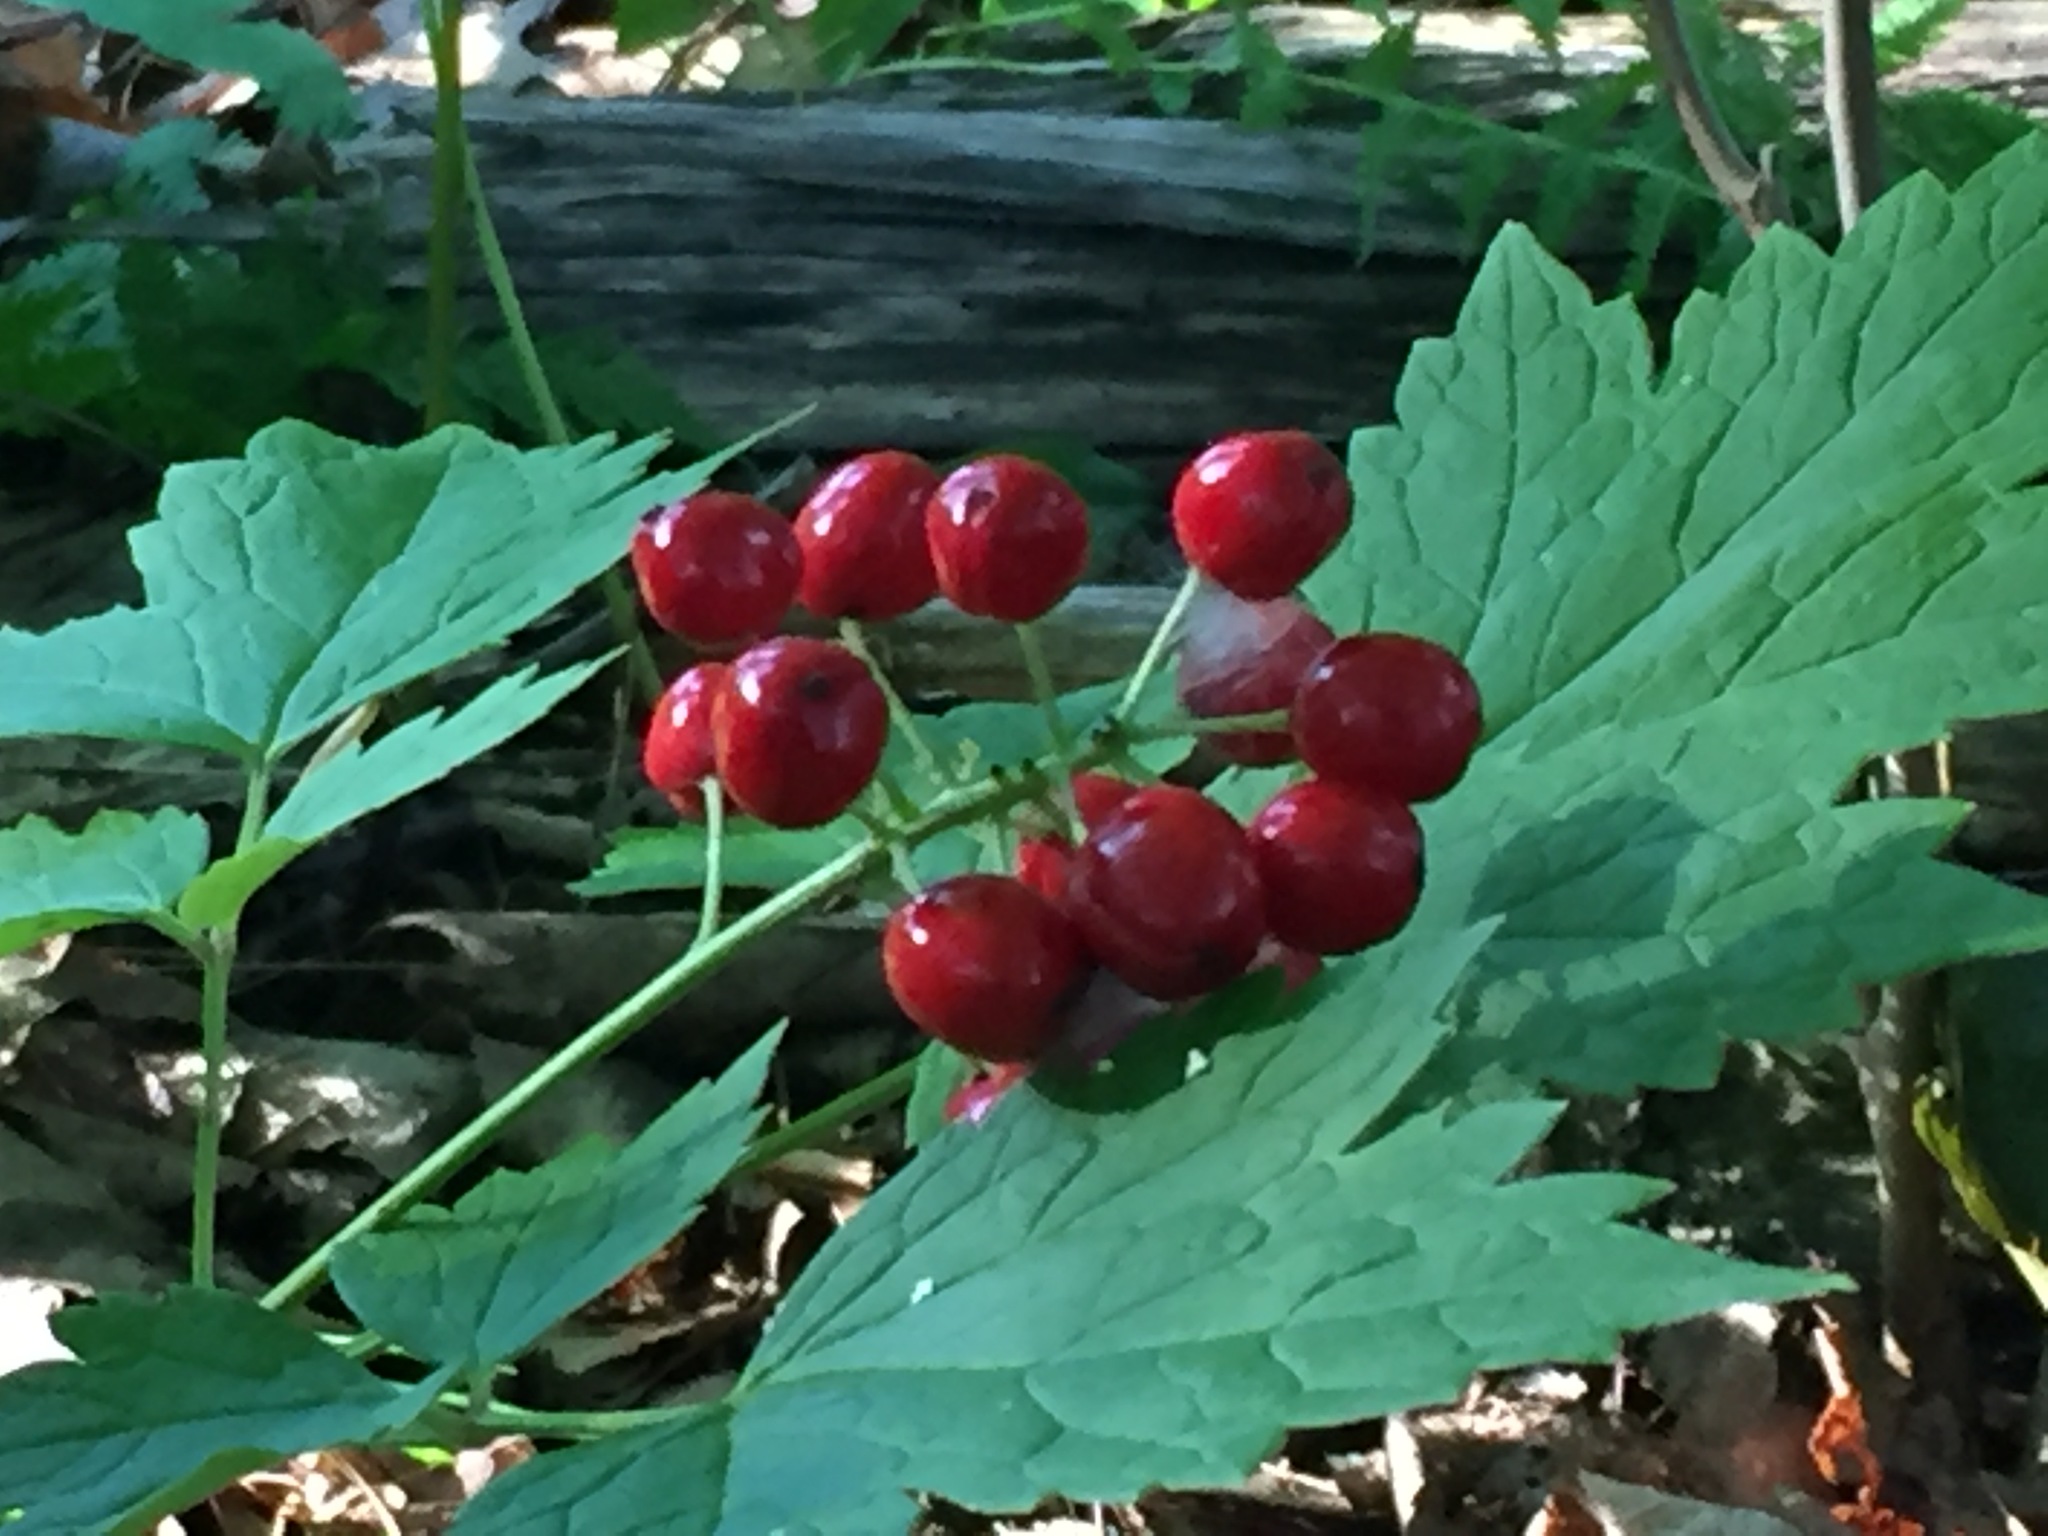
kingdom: Plantae
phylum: Tracheophyta
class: Magnoliopsida
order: Ranunculales
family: Ranunculaceae
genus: Actaea
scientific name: Actaea rubra
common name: Red baneberry
